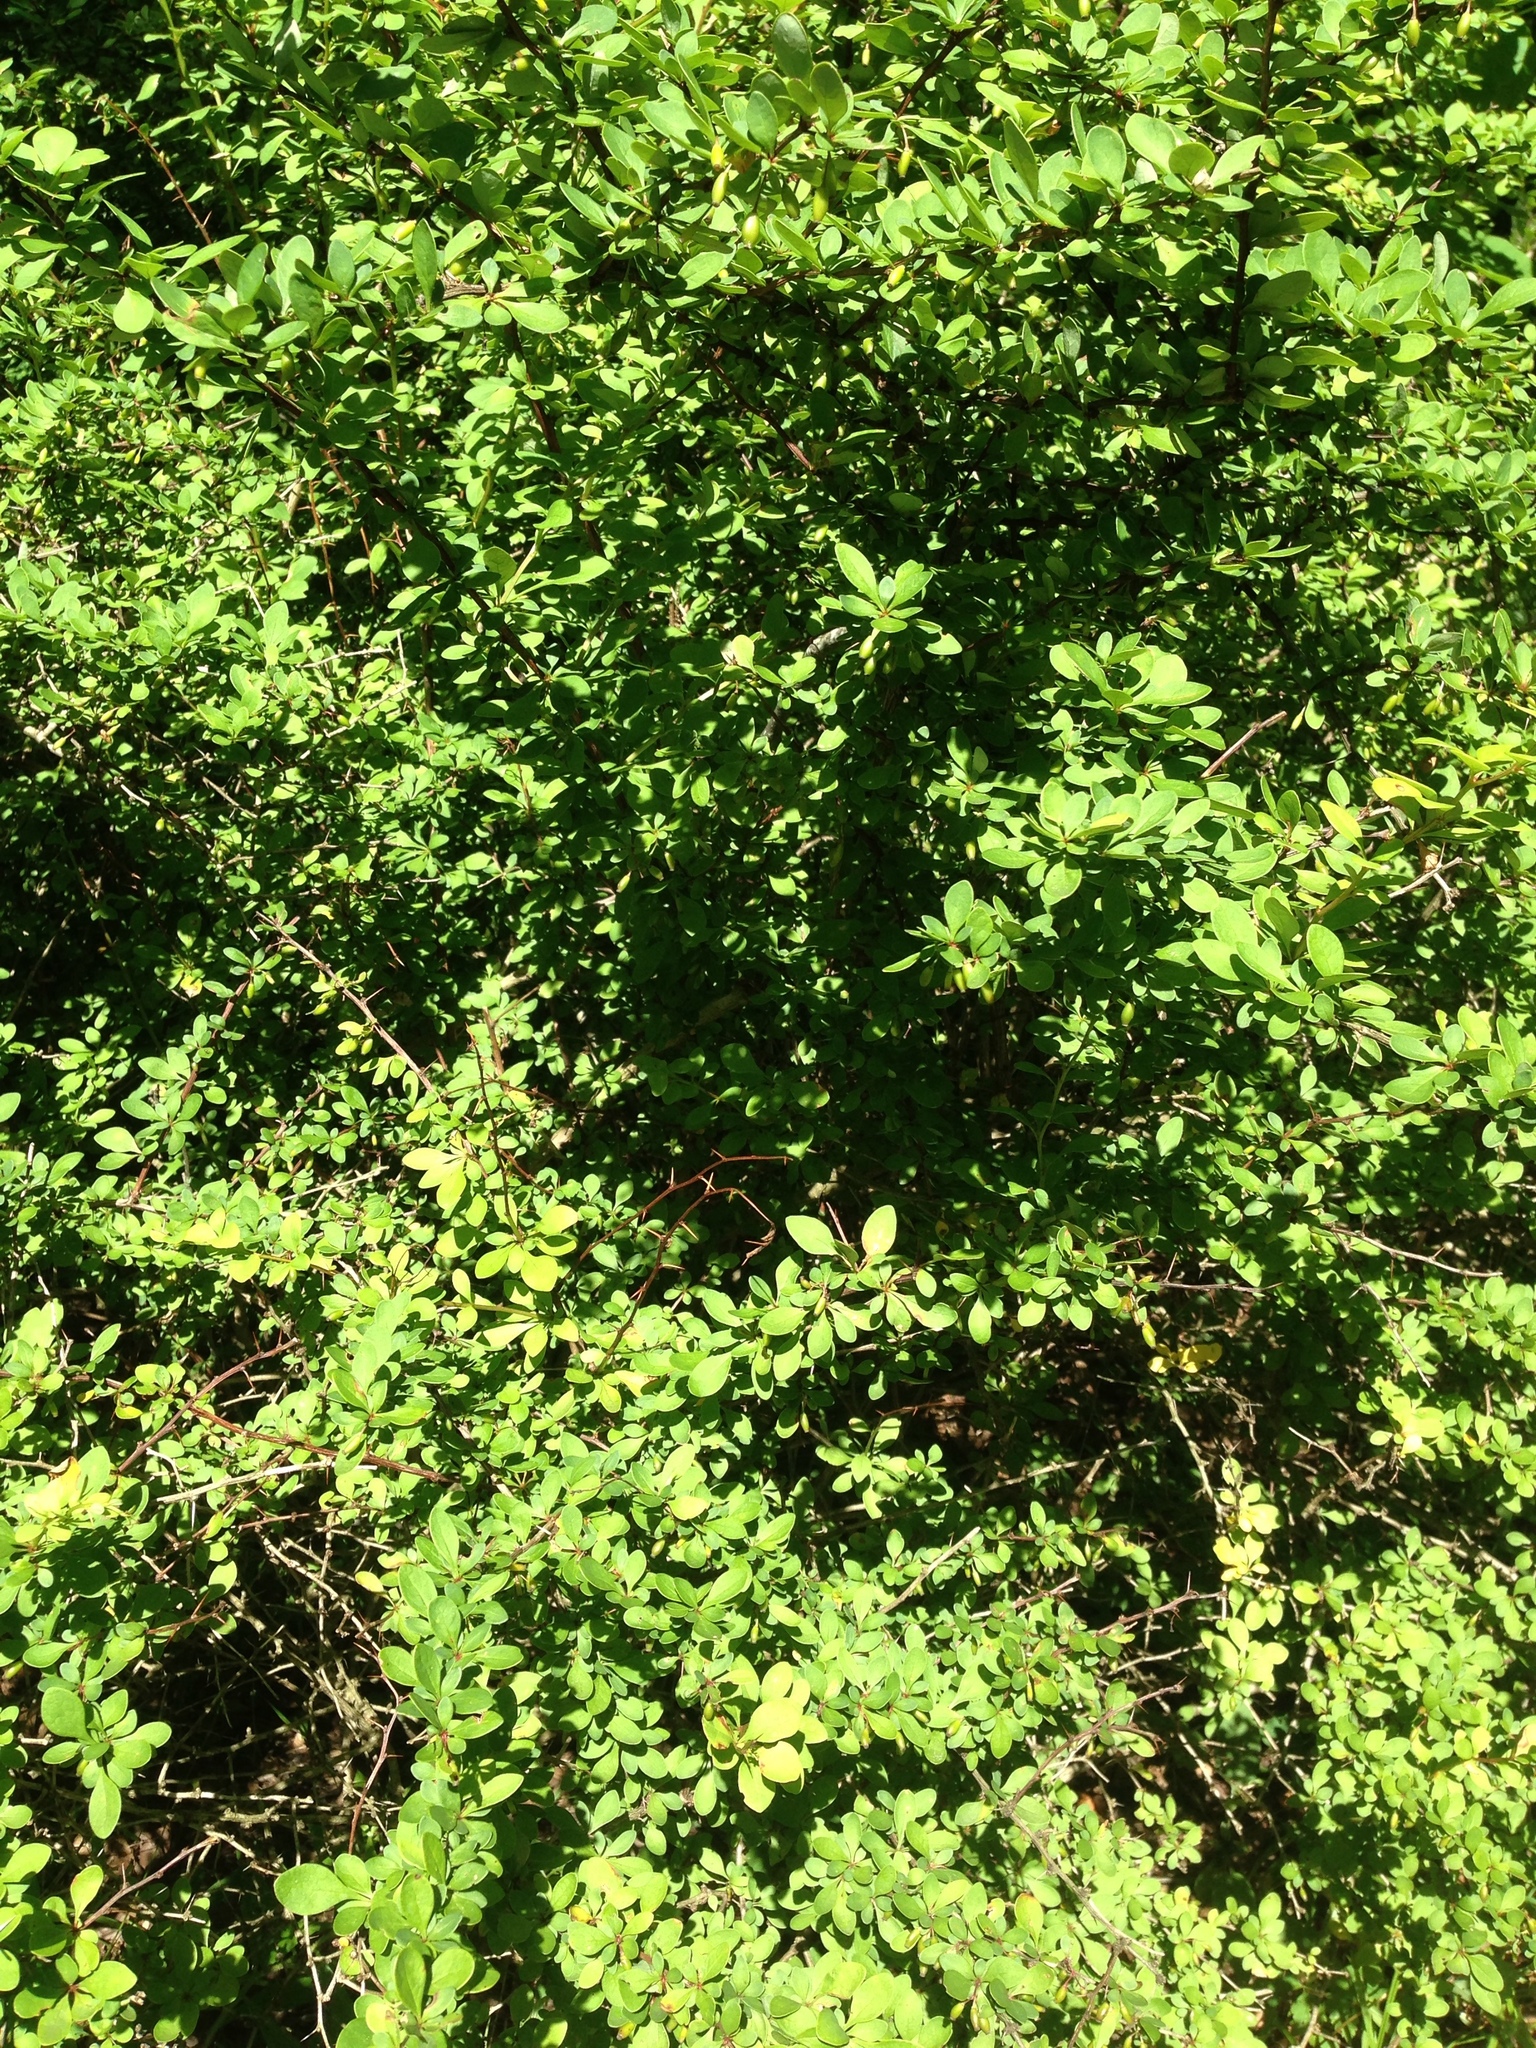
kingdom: Plantae
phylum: Tracheophyta
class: Magnoliopsida
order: Ranunculales
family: Berberidaceae
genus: Berberis
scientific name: Berberis thunbergii
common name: Japanese barberry
